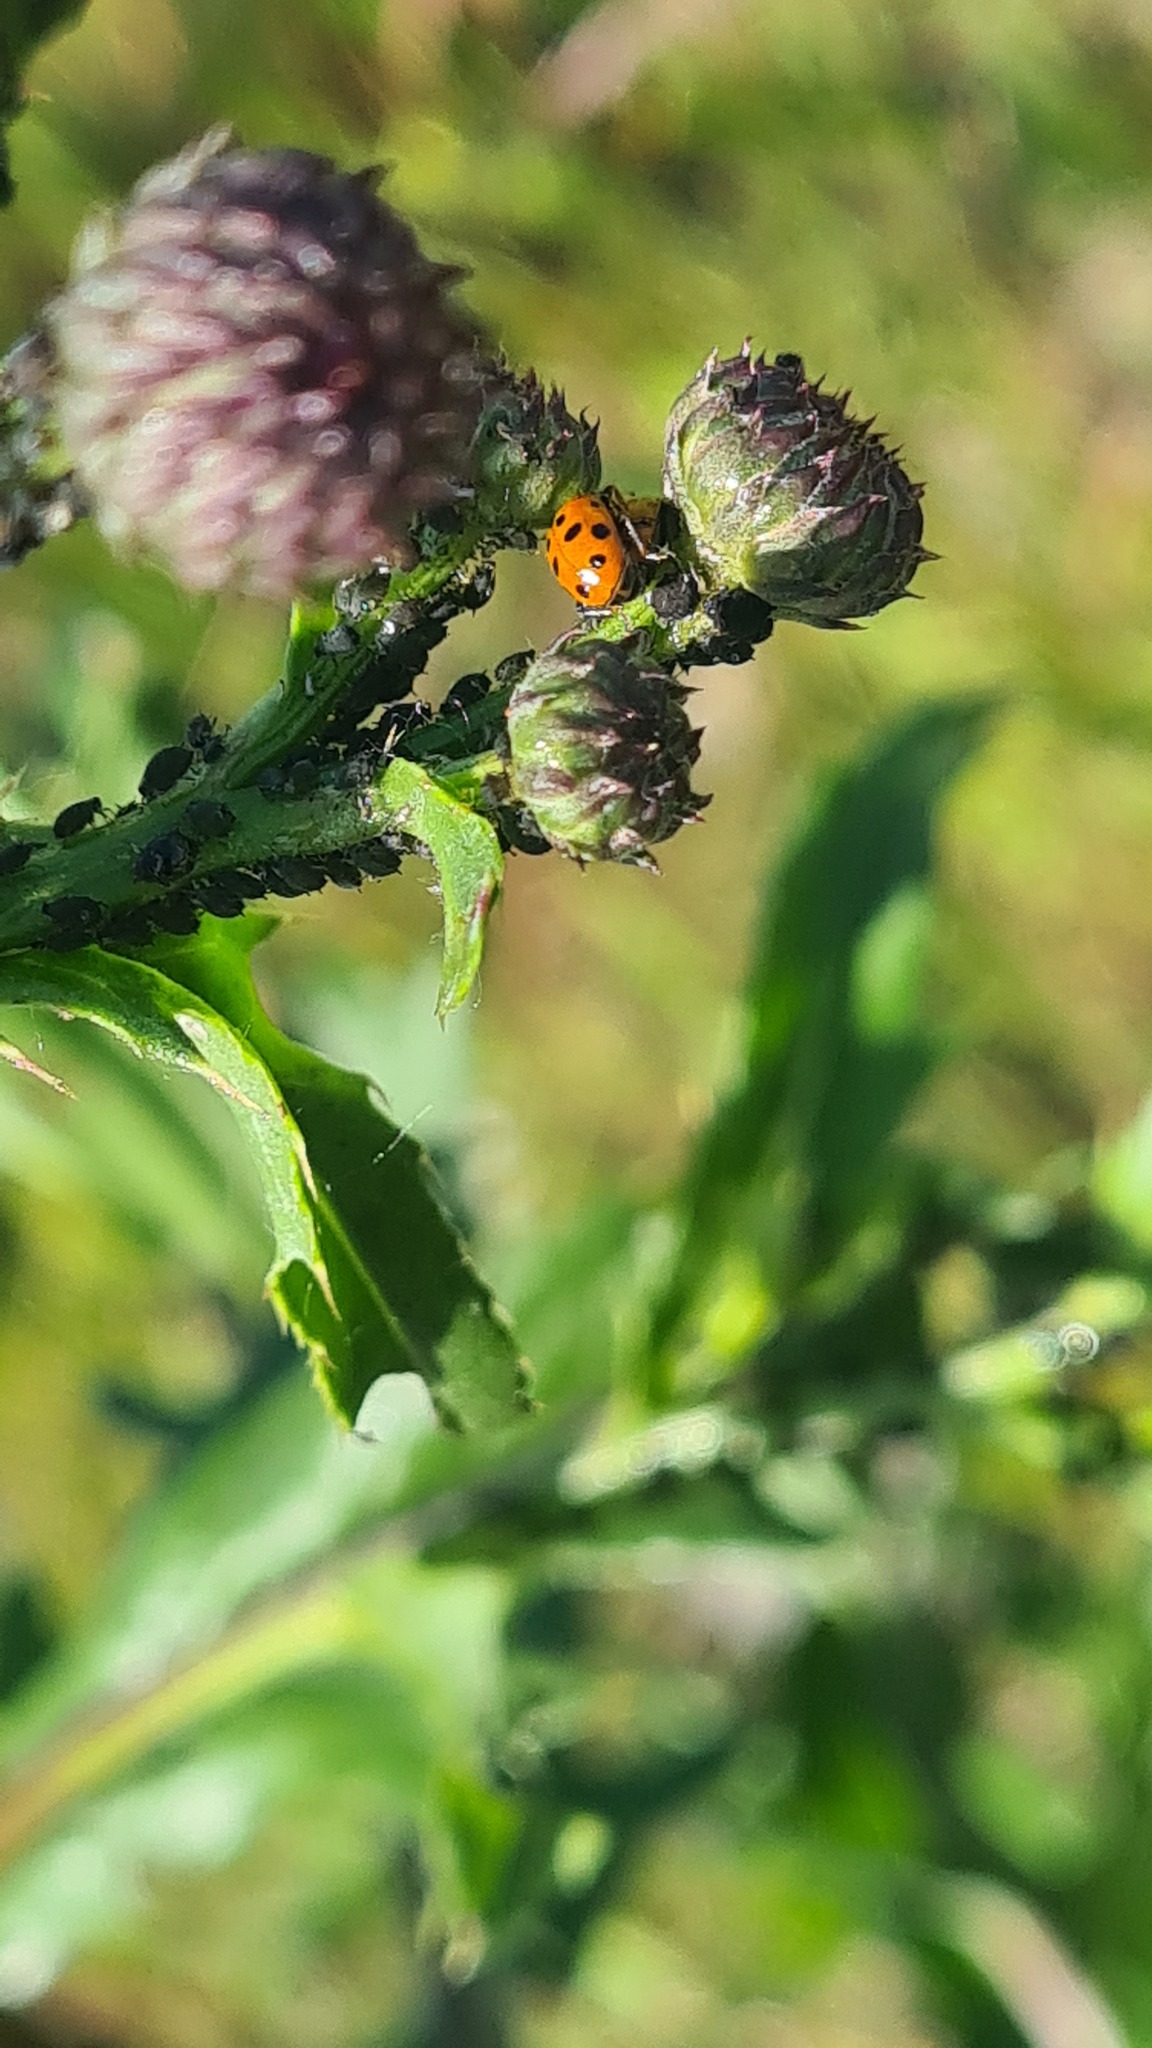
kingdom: Animalia
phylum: Arthropoda
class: Insecta
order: Coleoptera
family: Coccinellidae
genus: Hippodamia
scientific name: Hippodamia variegata
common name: Ladybird beetle
